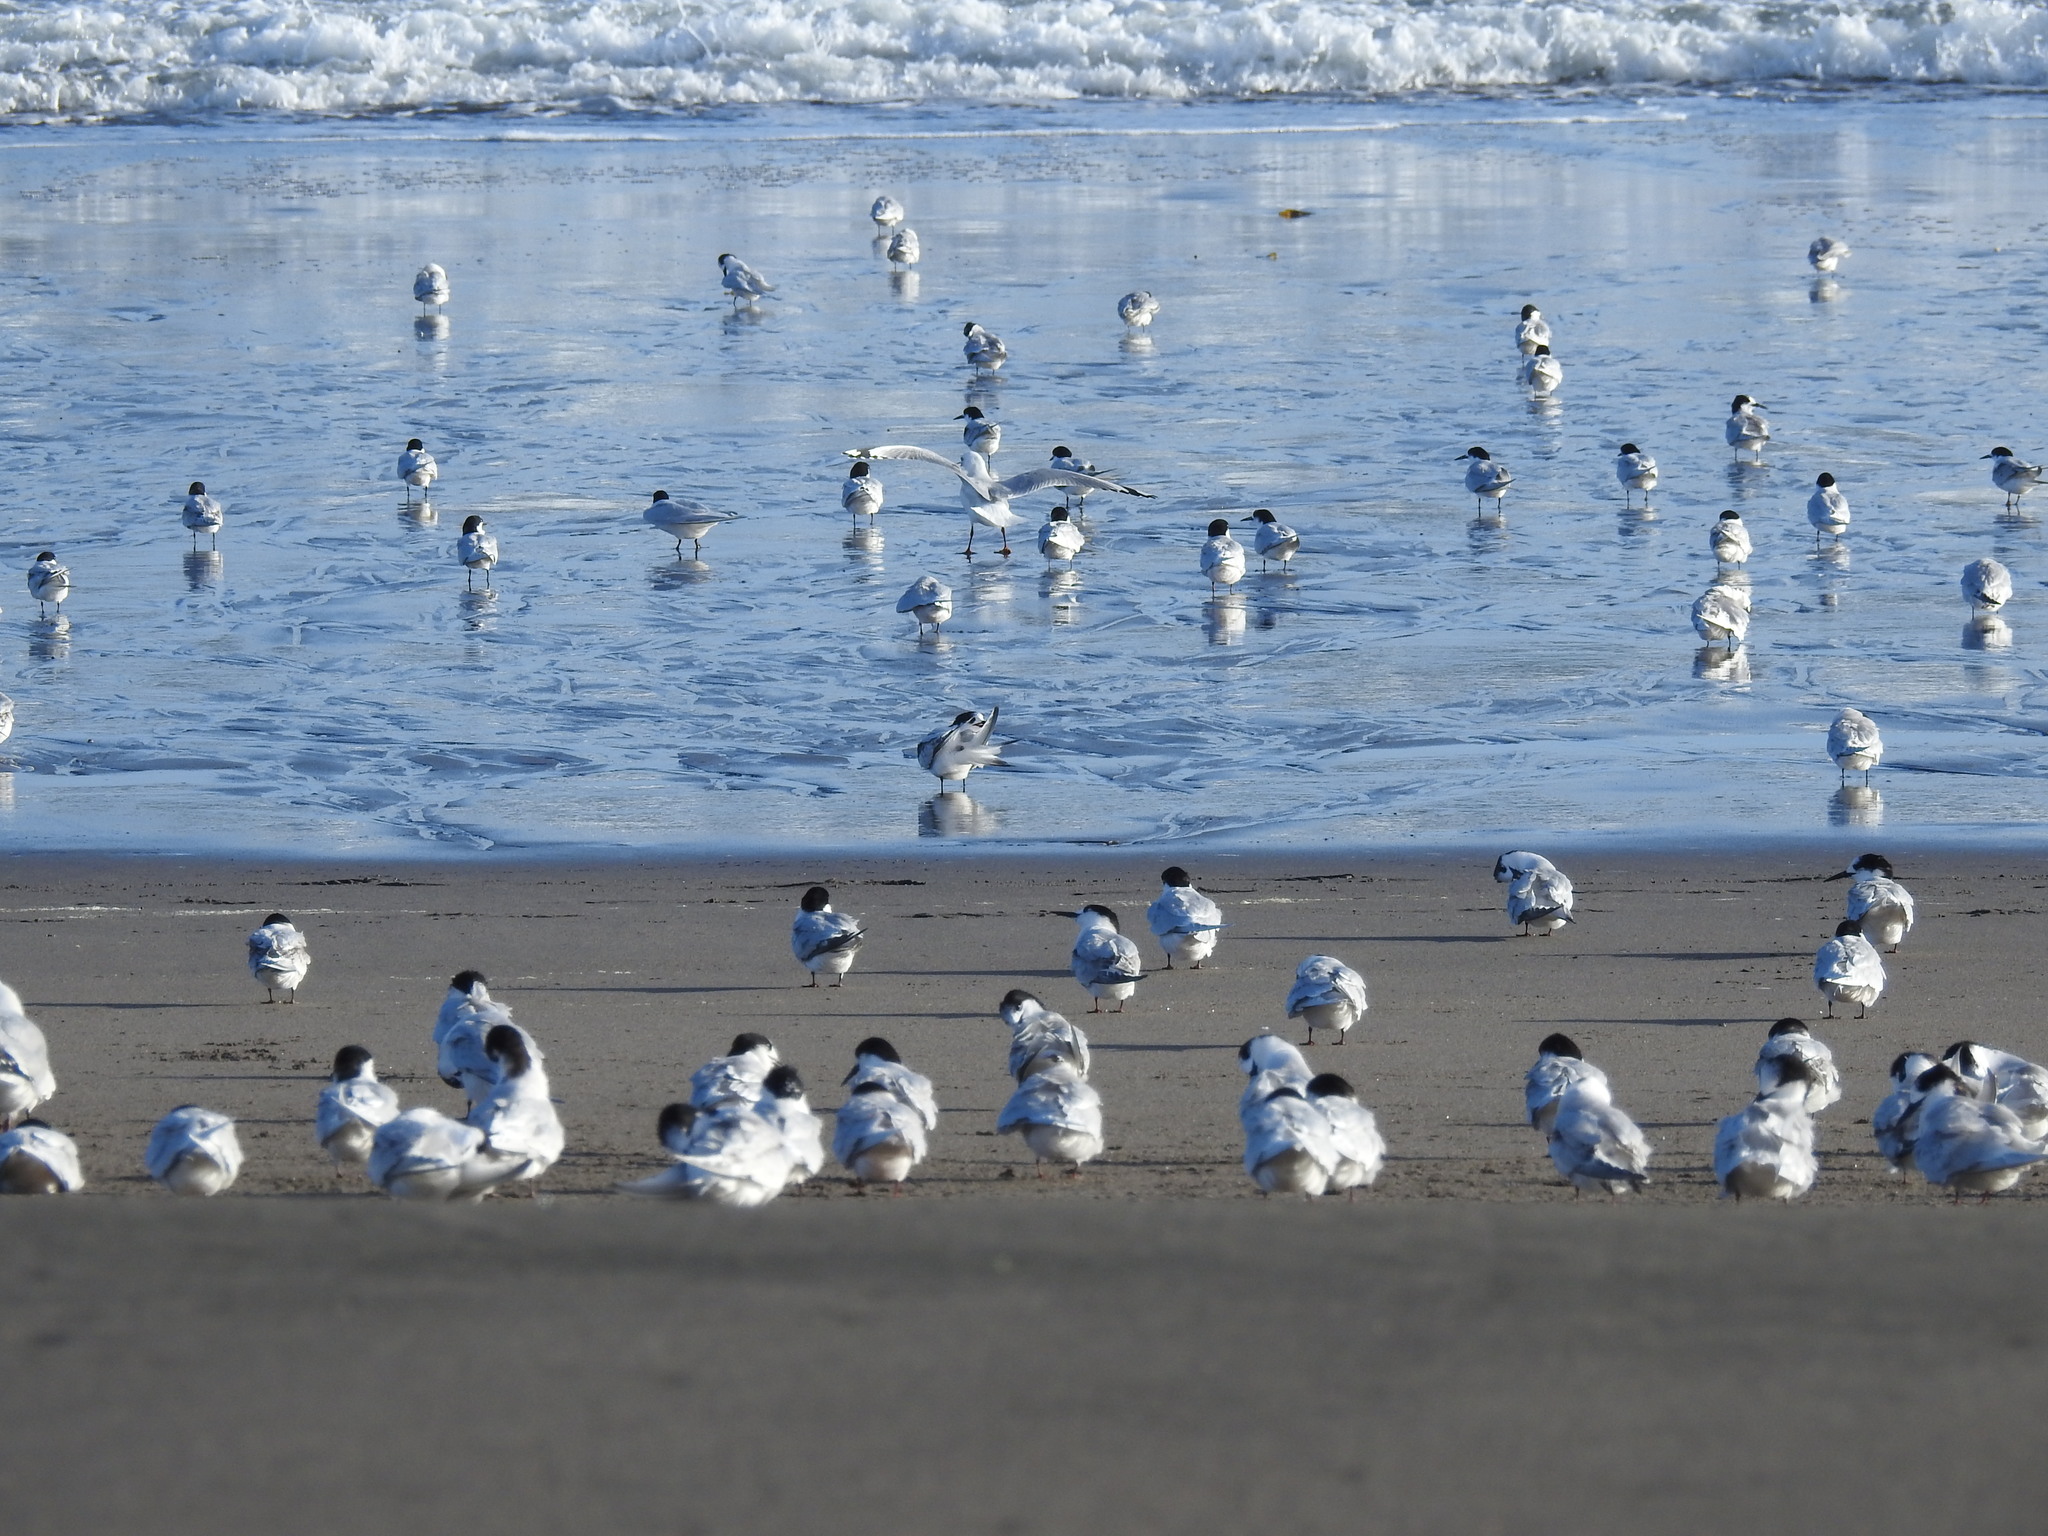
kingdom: Animalia
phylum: Chordata
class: Aves
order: Charadriiformes
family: Laridae
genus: Sterna
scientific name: Sterna striata
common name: White-fronted tern
